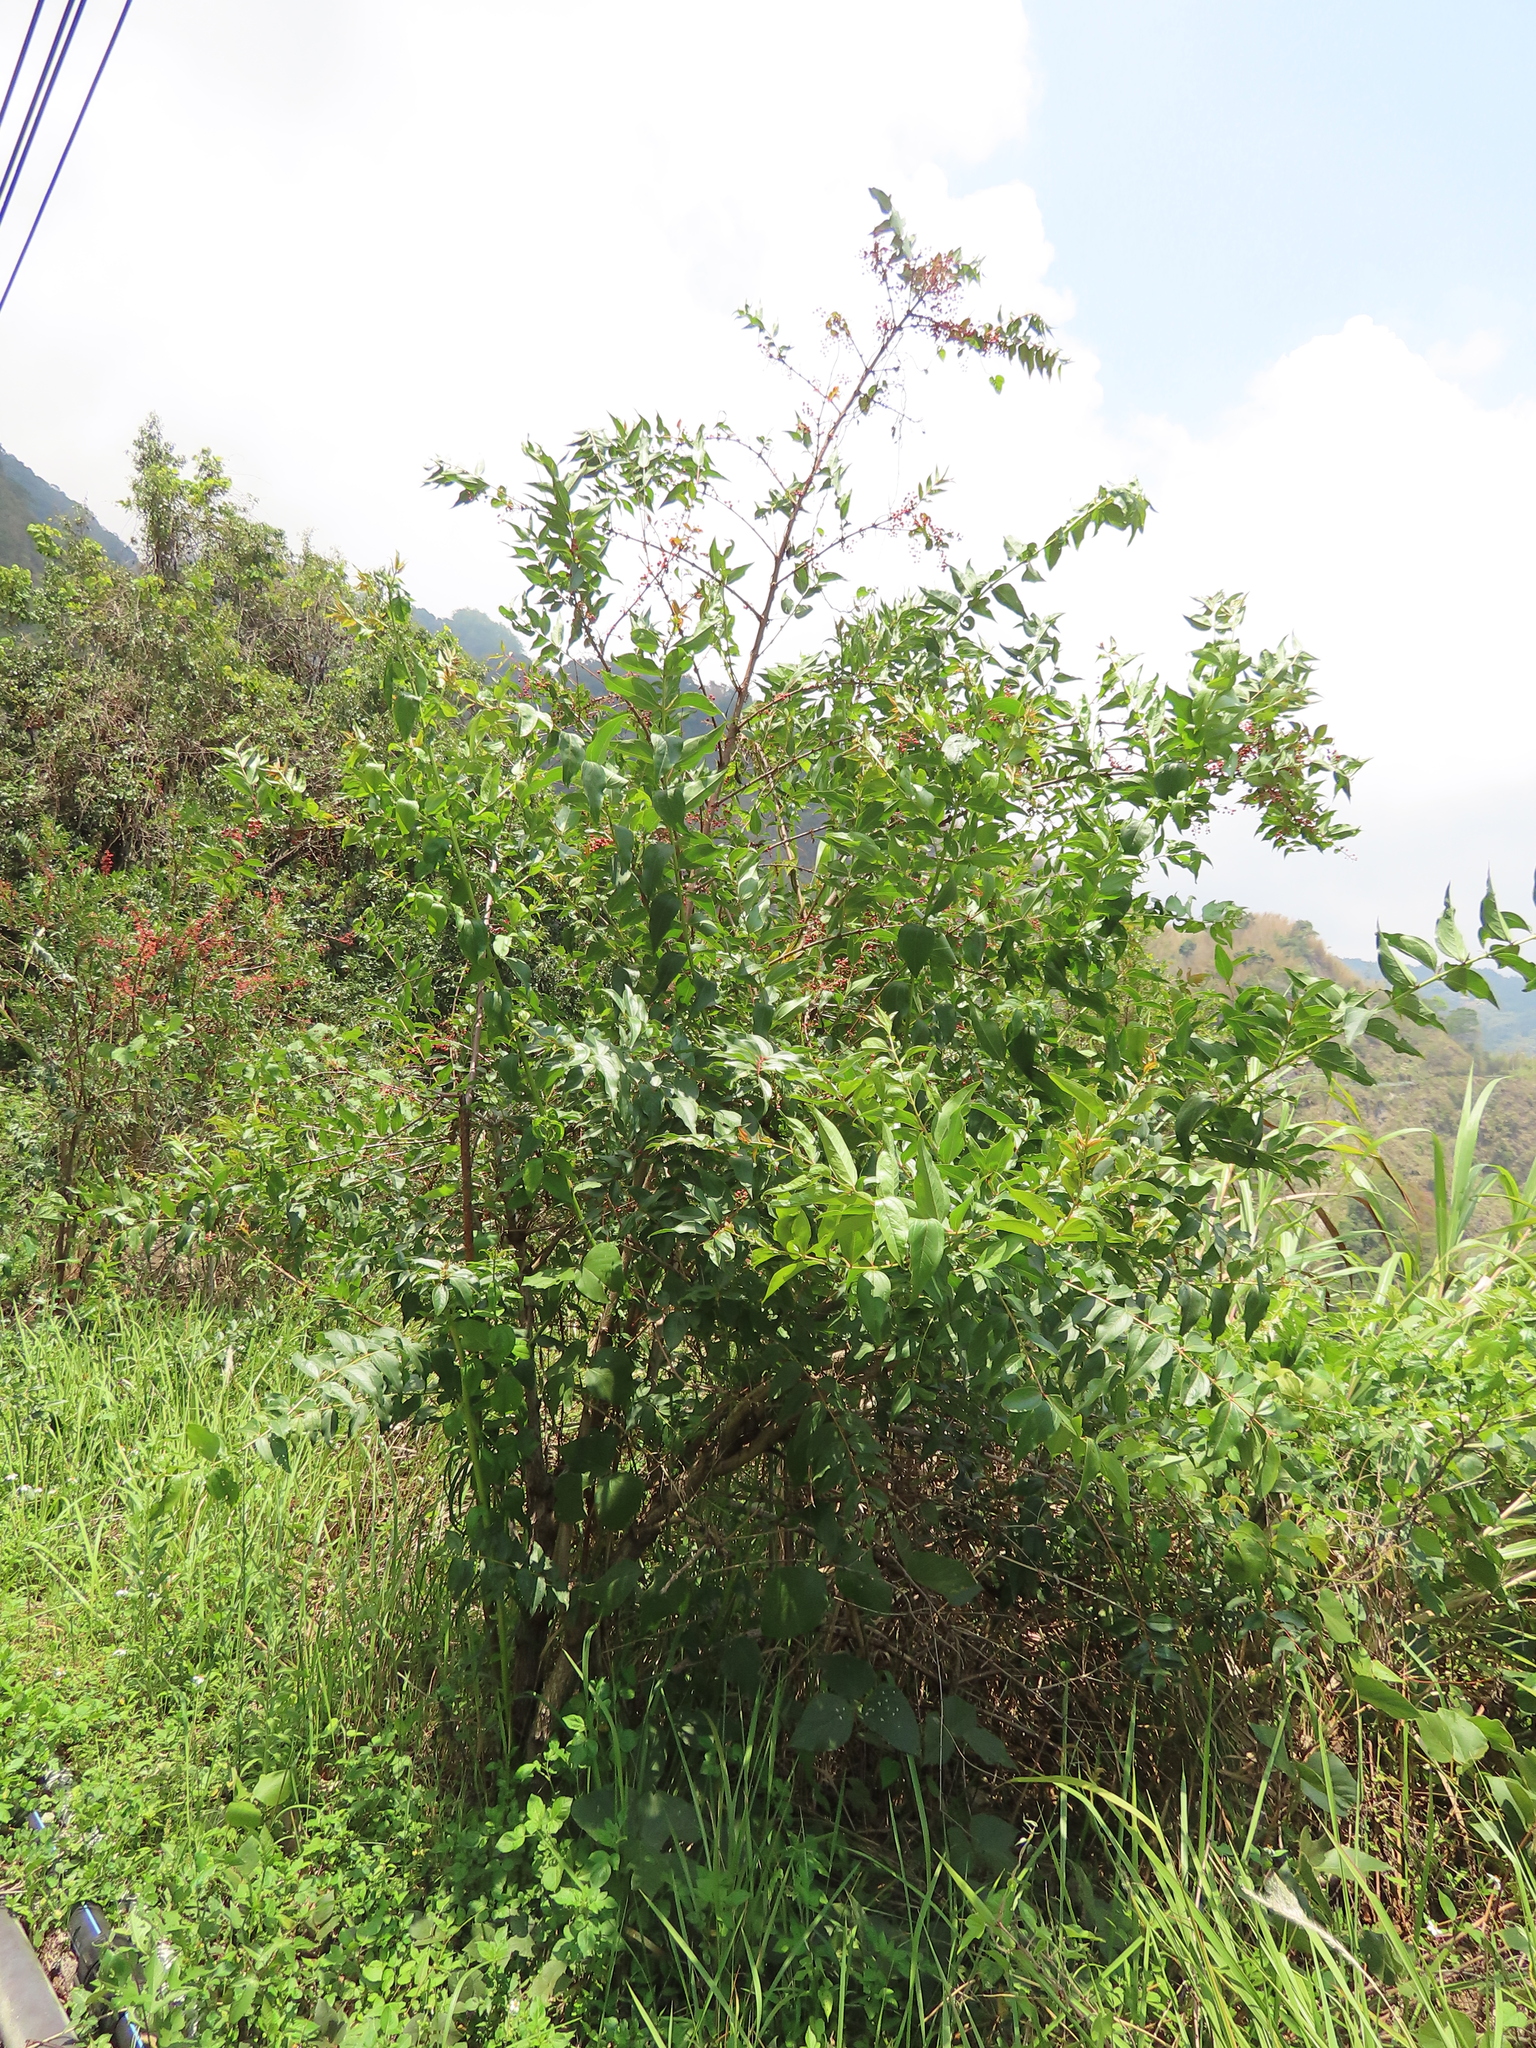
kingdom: Plantae
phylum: Tracheophyta
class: Magnoliopsida
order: Cucurbitales
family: Coriariaceae
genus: Coriaria
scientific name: Coriaria japonica
